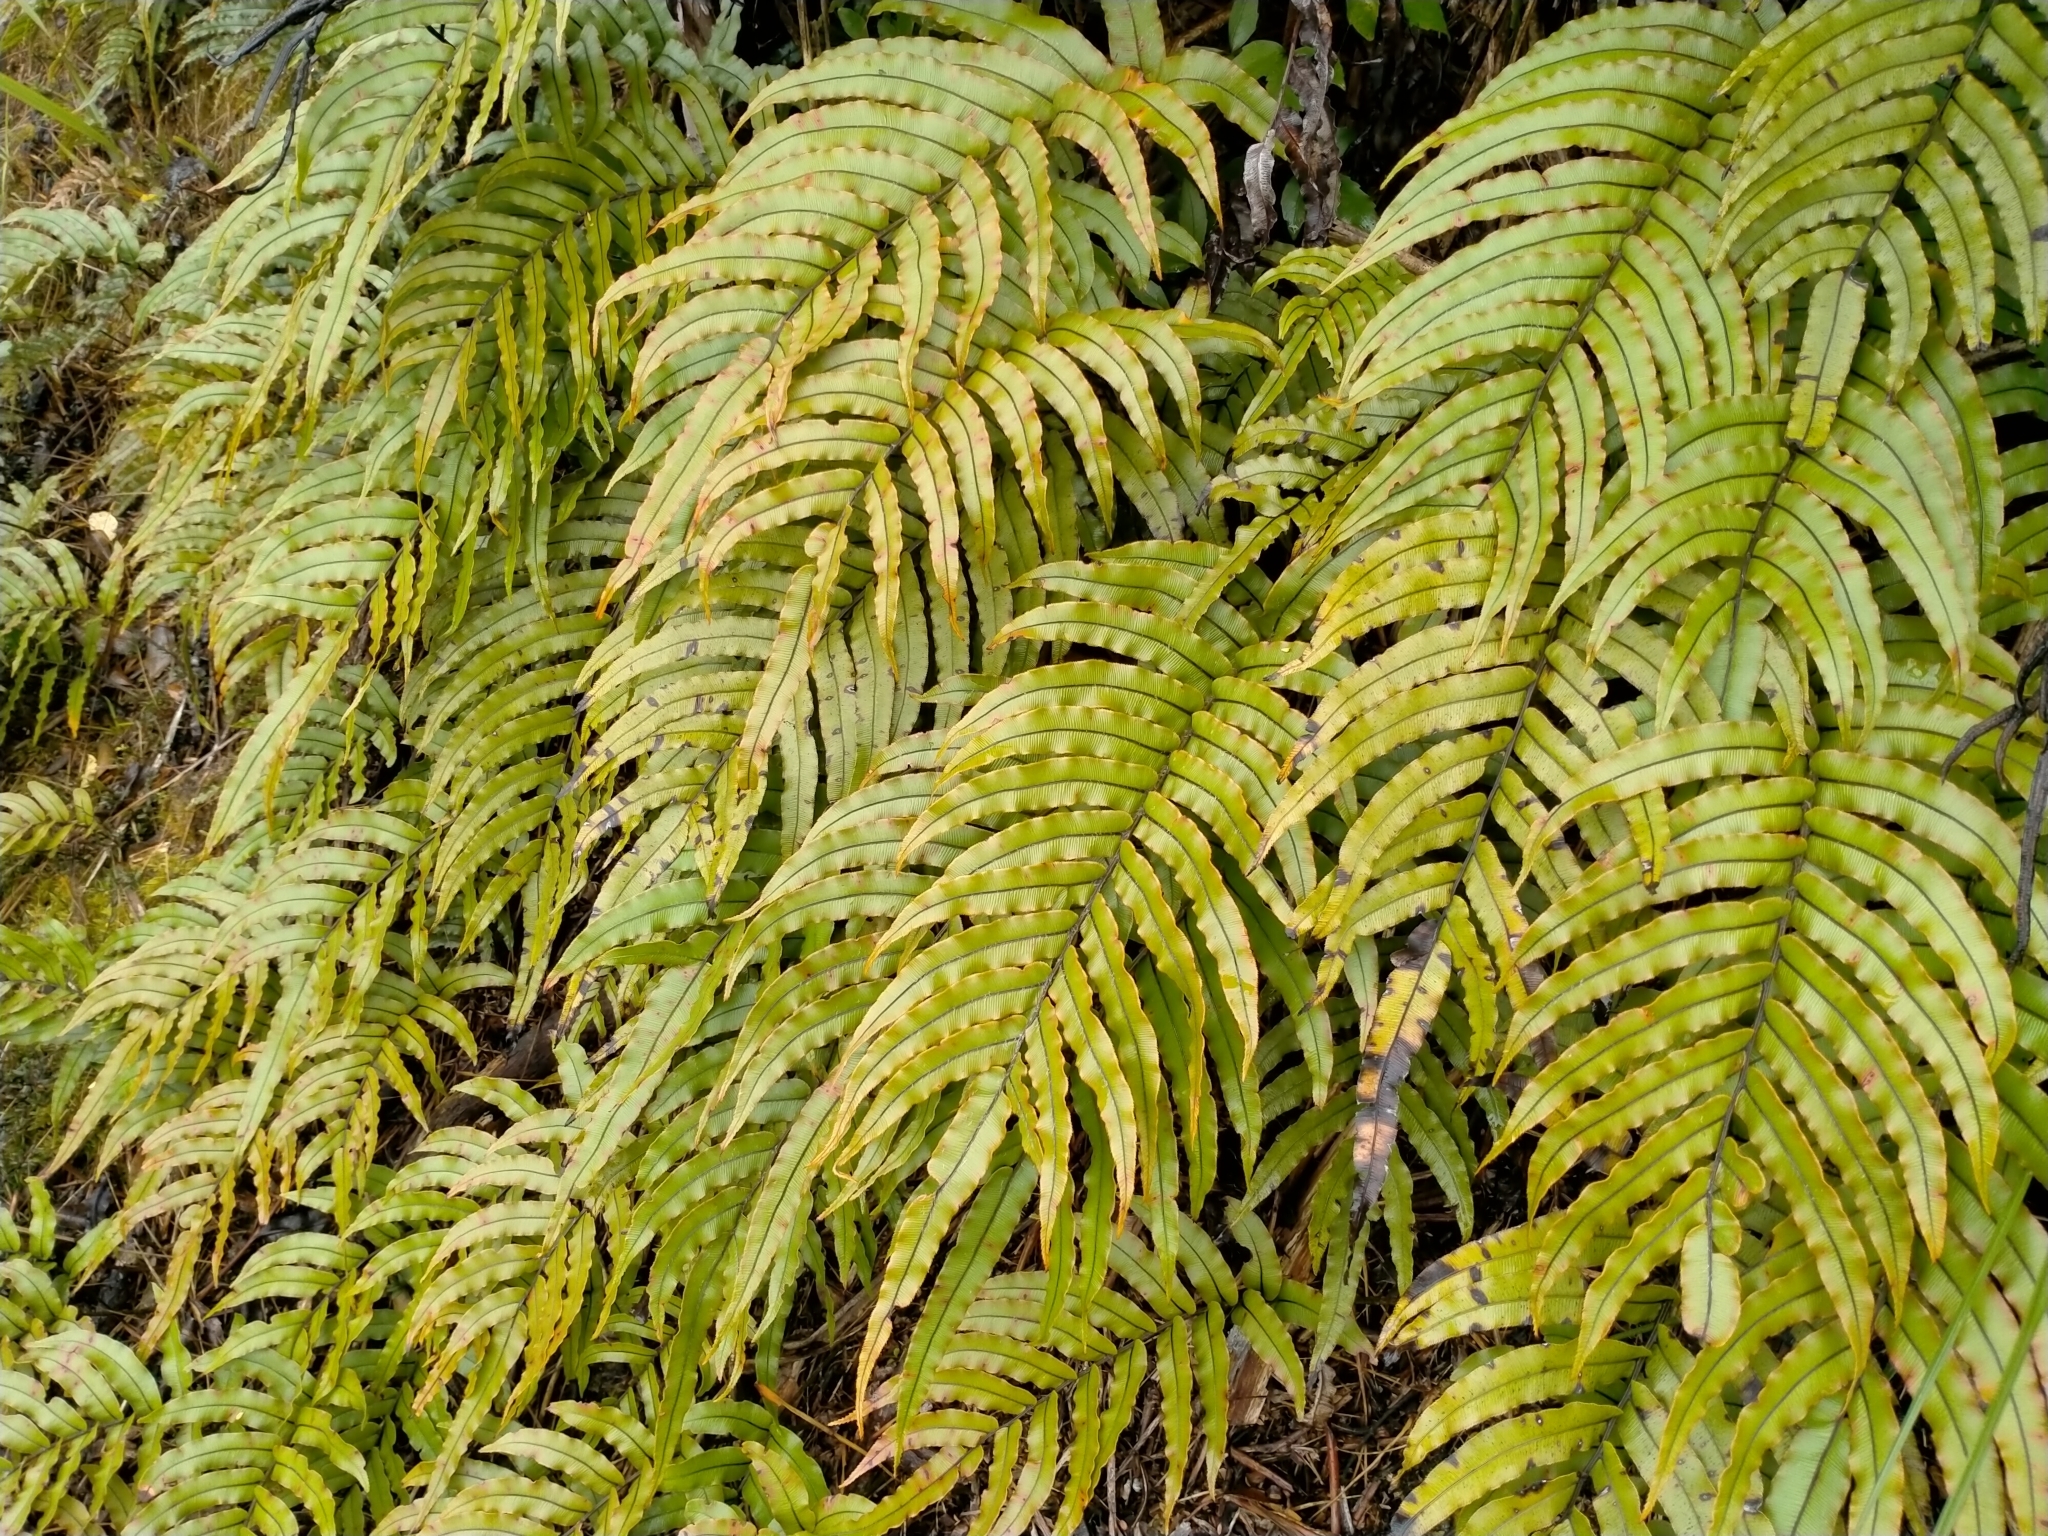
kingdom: Plantae
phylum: Tracheophyta
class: Polypodiopsida
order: Polypodiales
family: Blechnaceae
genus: Parablechnum
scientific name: Parablechnum montanum
